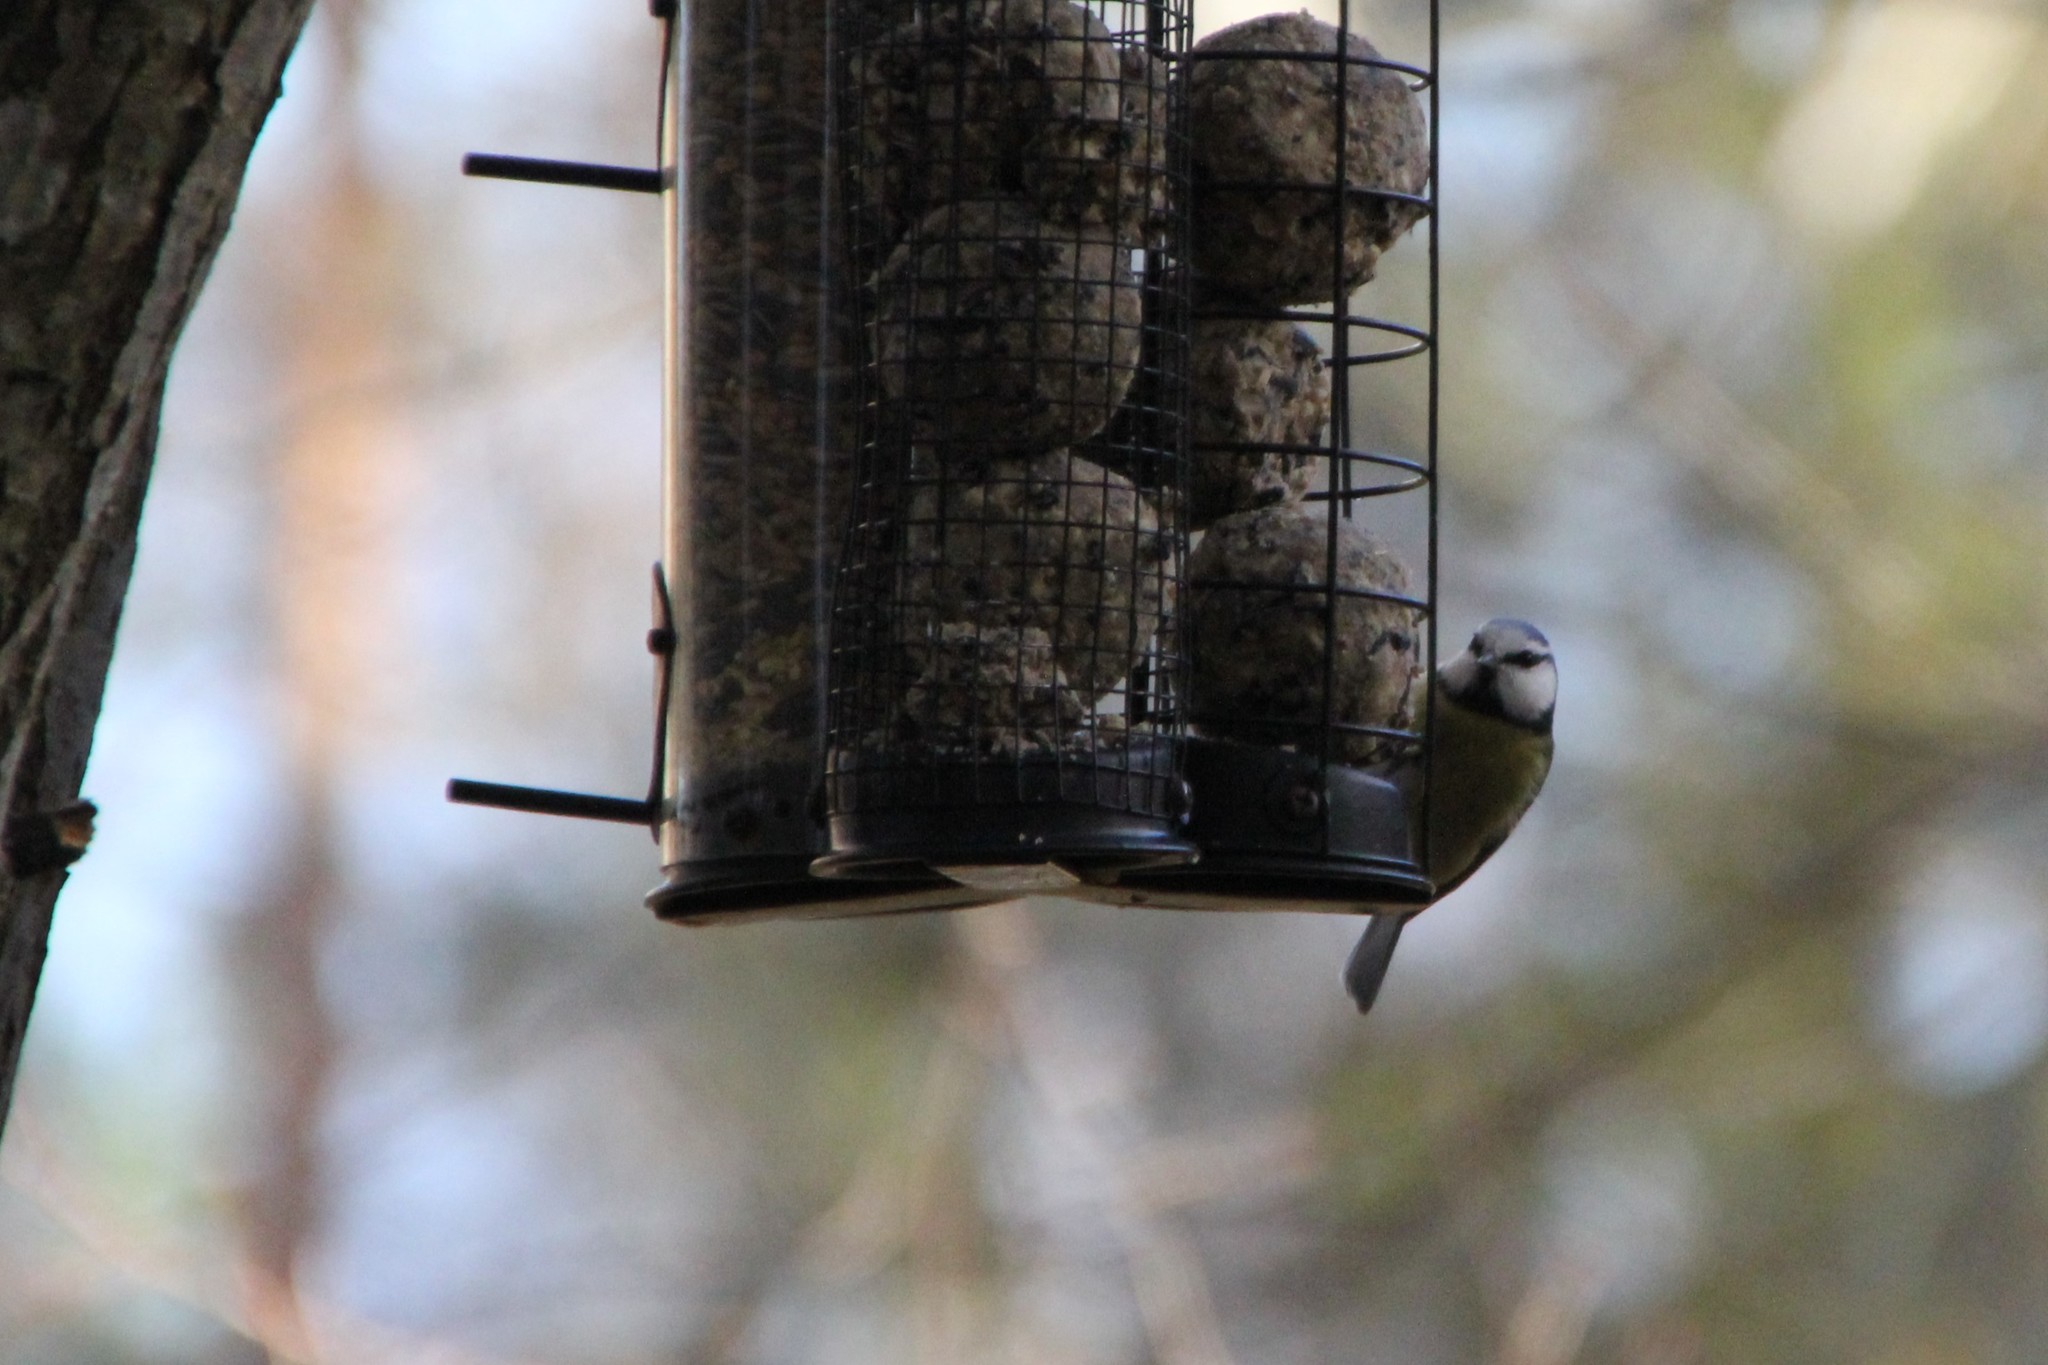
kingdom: Animalia
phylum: Chordata
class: Aves
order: Passeriformes
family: Paridae
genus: Cyanistes
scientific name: Cyanistes caeruleus
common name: Eurasian blue tit
